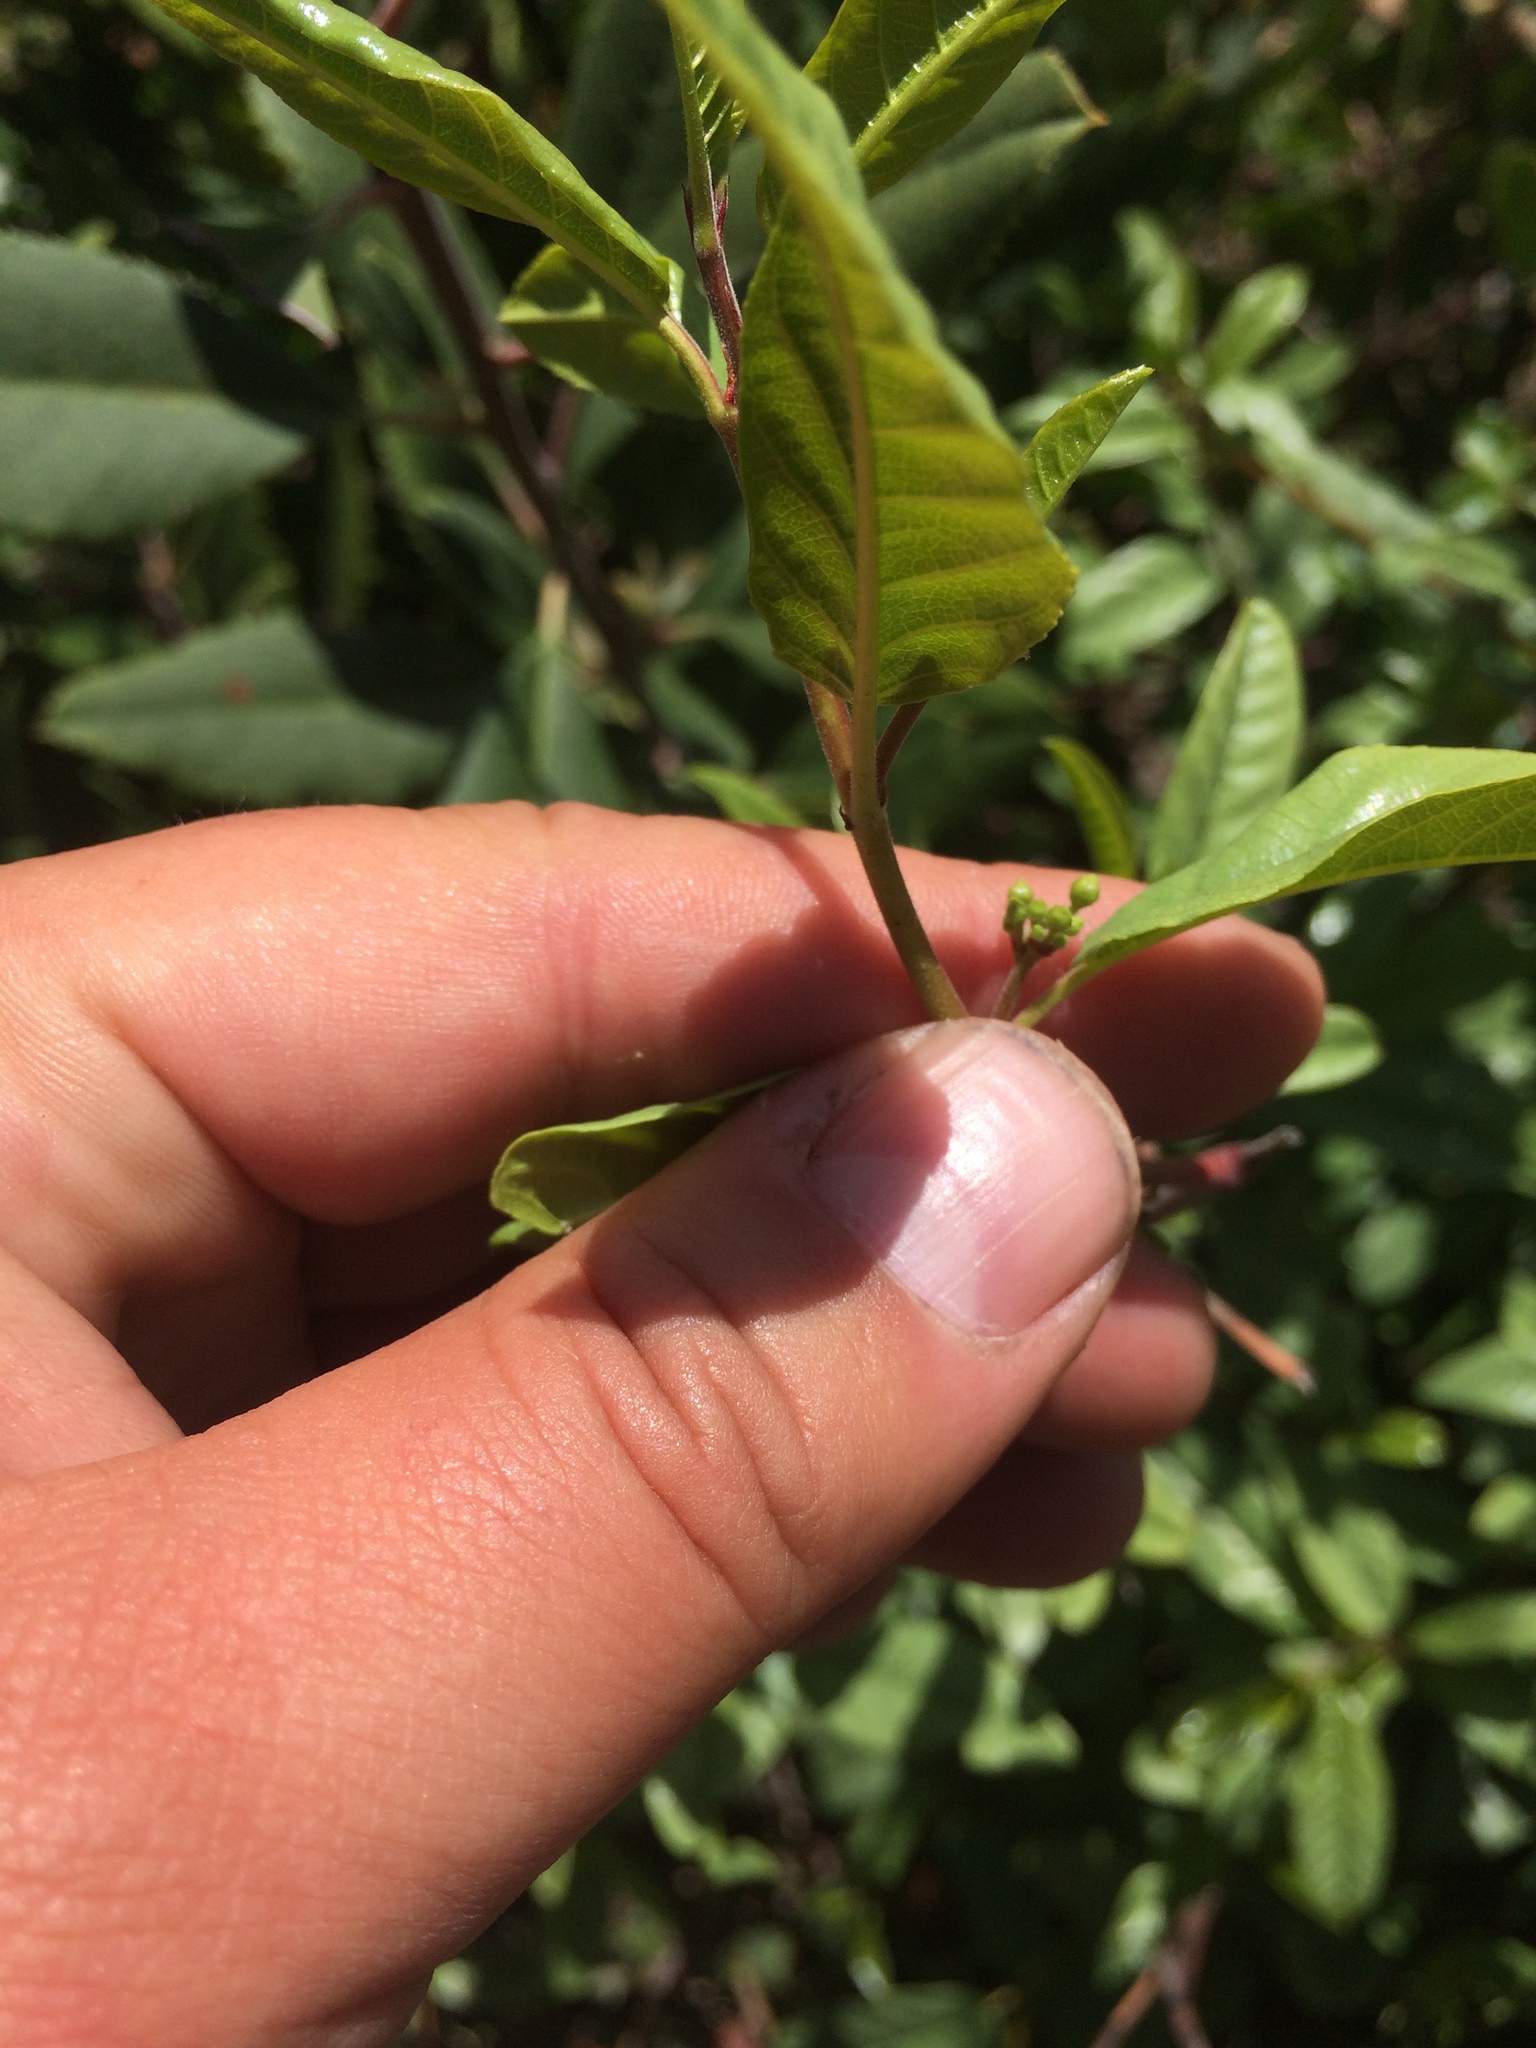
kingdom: Plantae
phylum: Tracheophyta
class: Magnoliopsida
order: Rosales
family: Rhamnaceae
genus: Frangula
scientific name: Frangula californica
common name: California buckthorn
